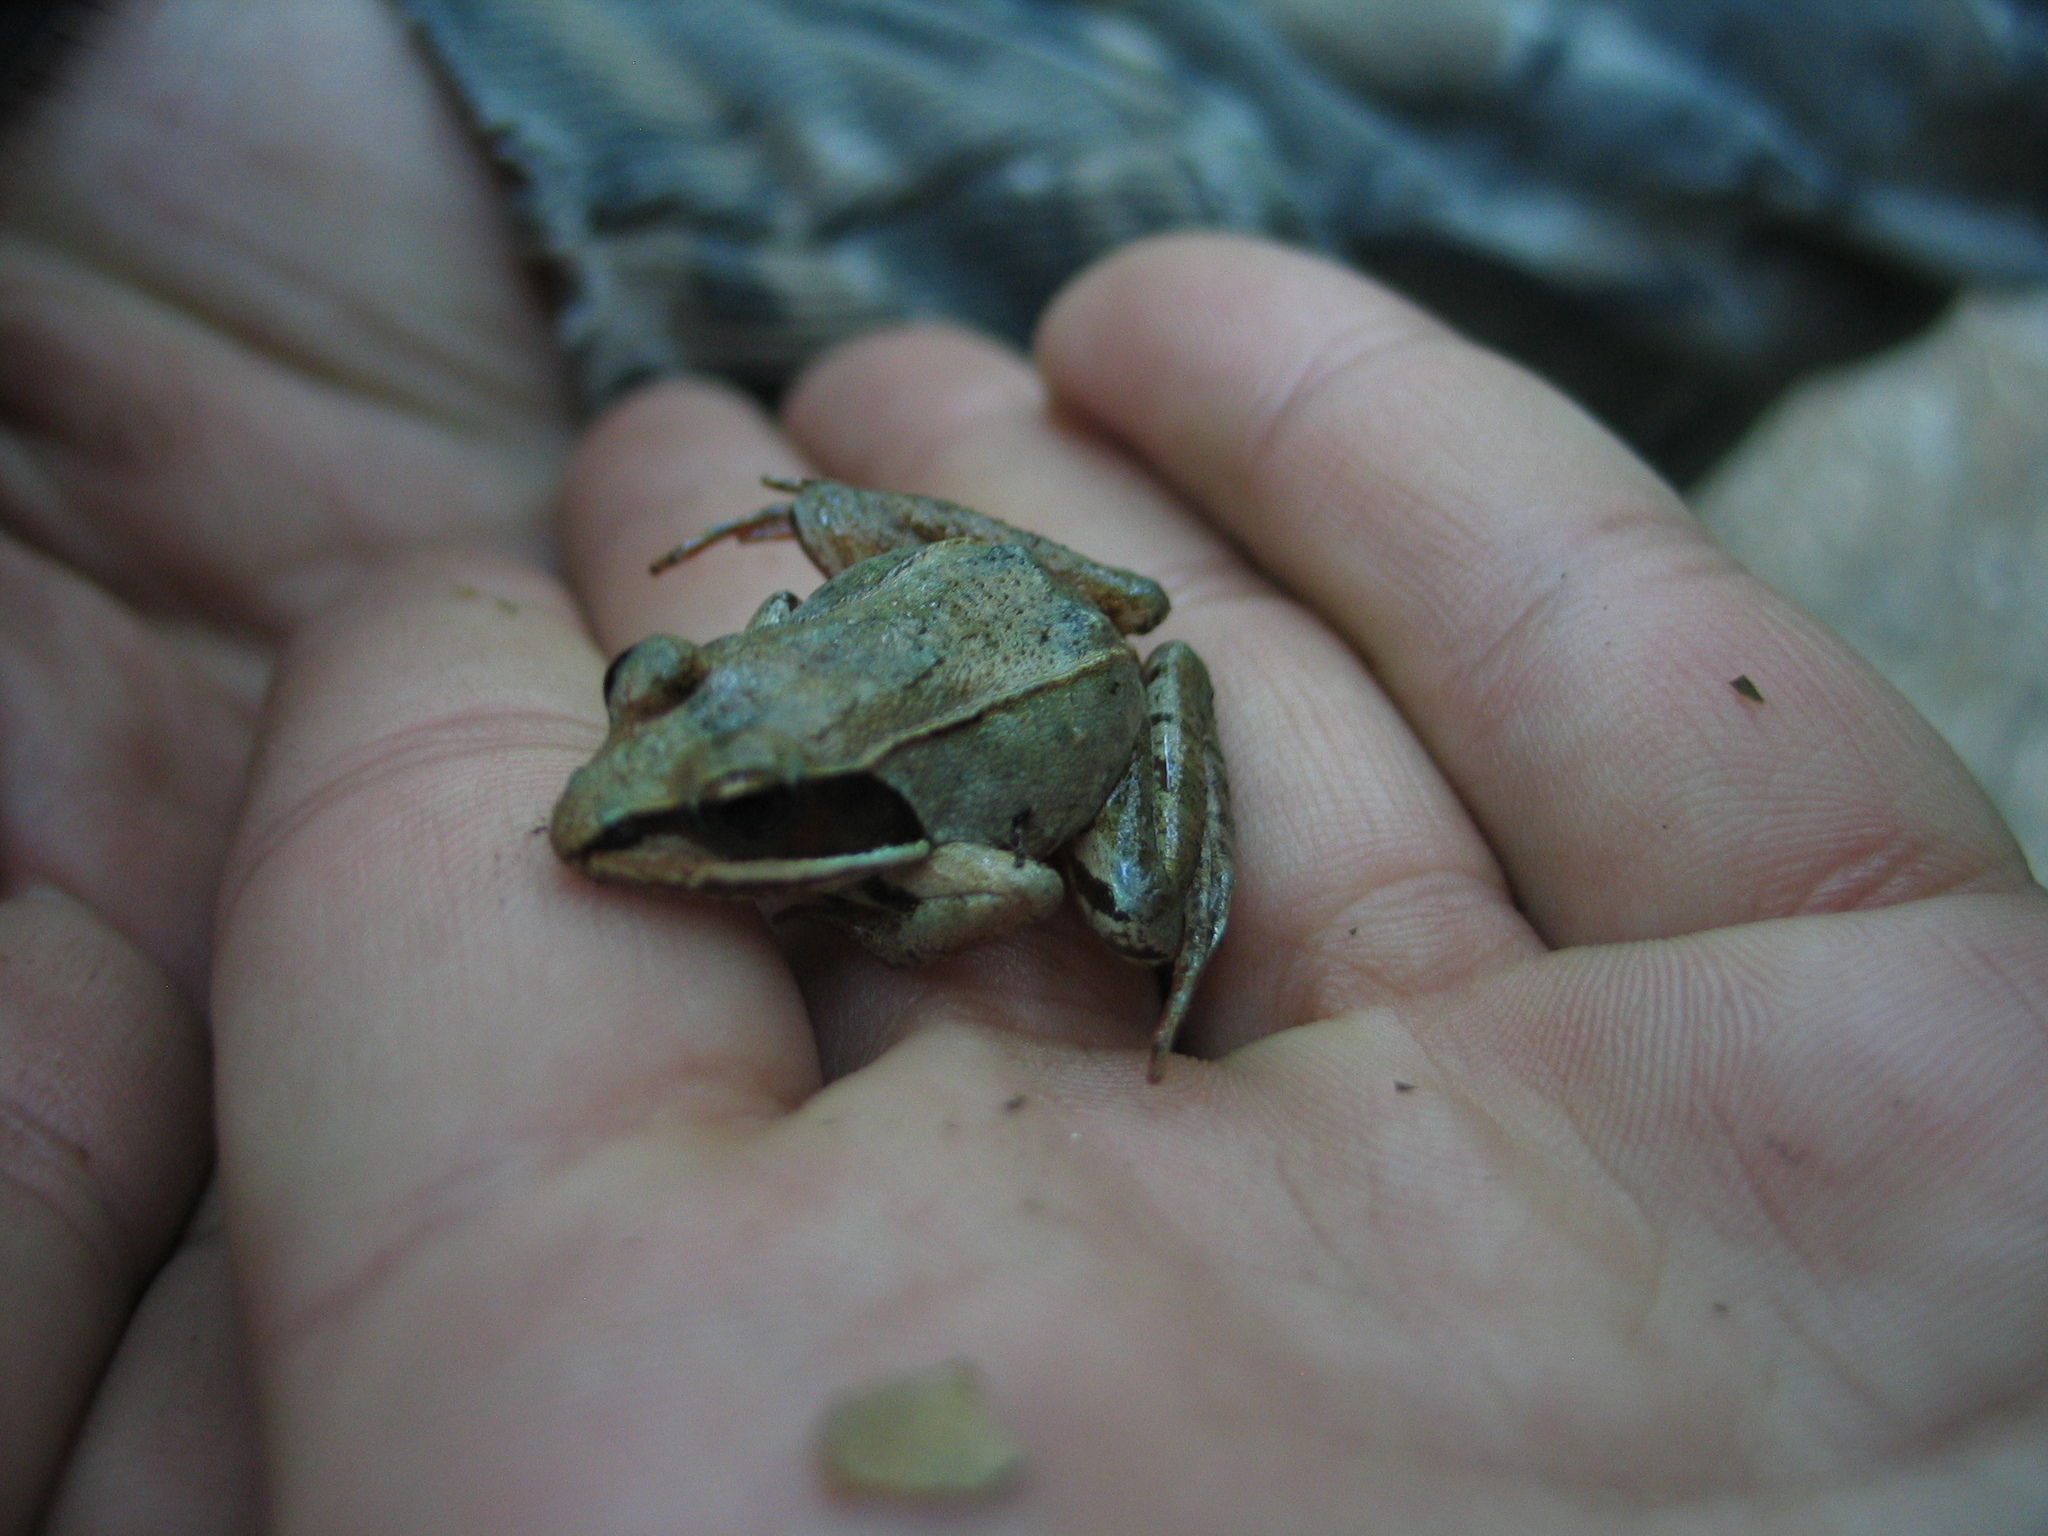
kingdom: Animalia
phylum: Chordata
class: Amphibia
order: Anura
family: Ranidae
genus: Lithobates
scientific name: Lithobates sylvaticus
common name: Wood frog
